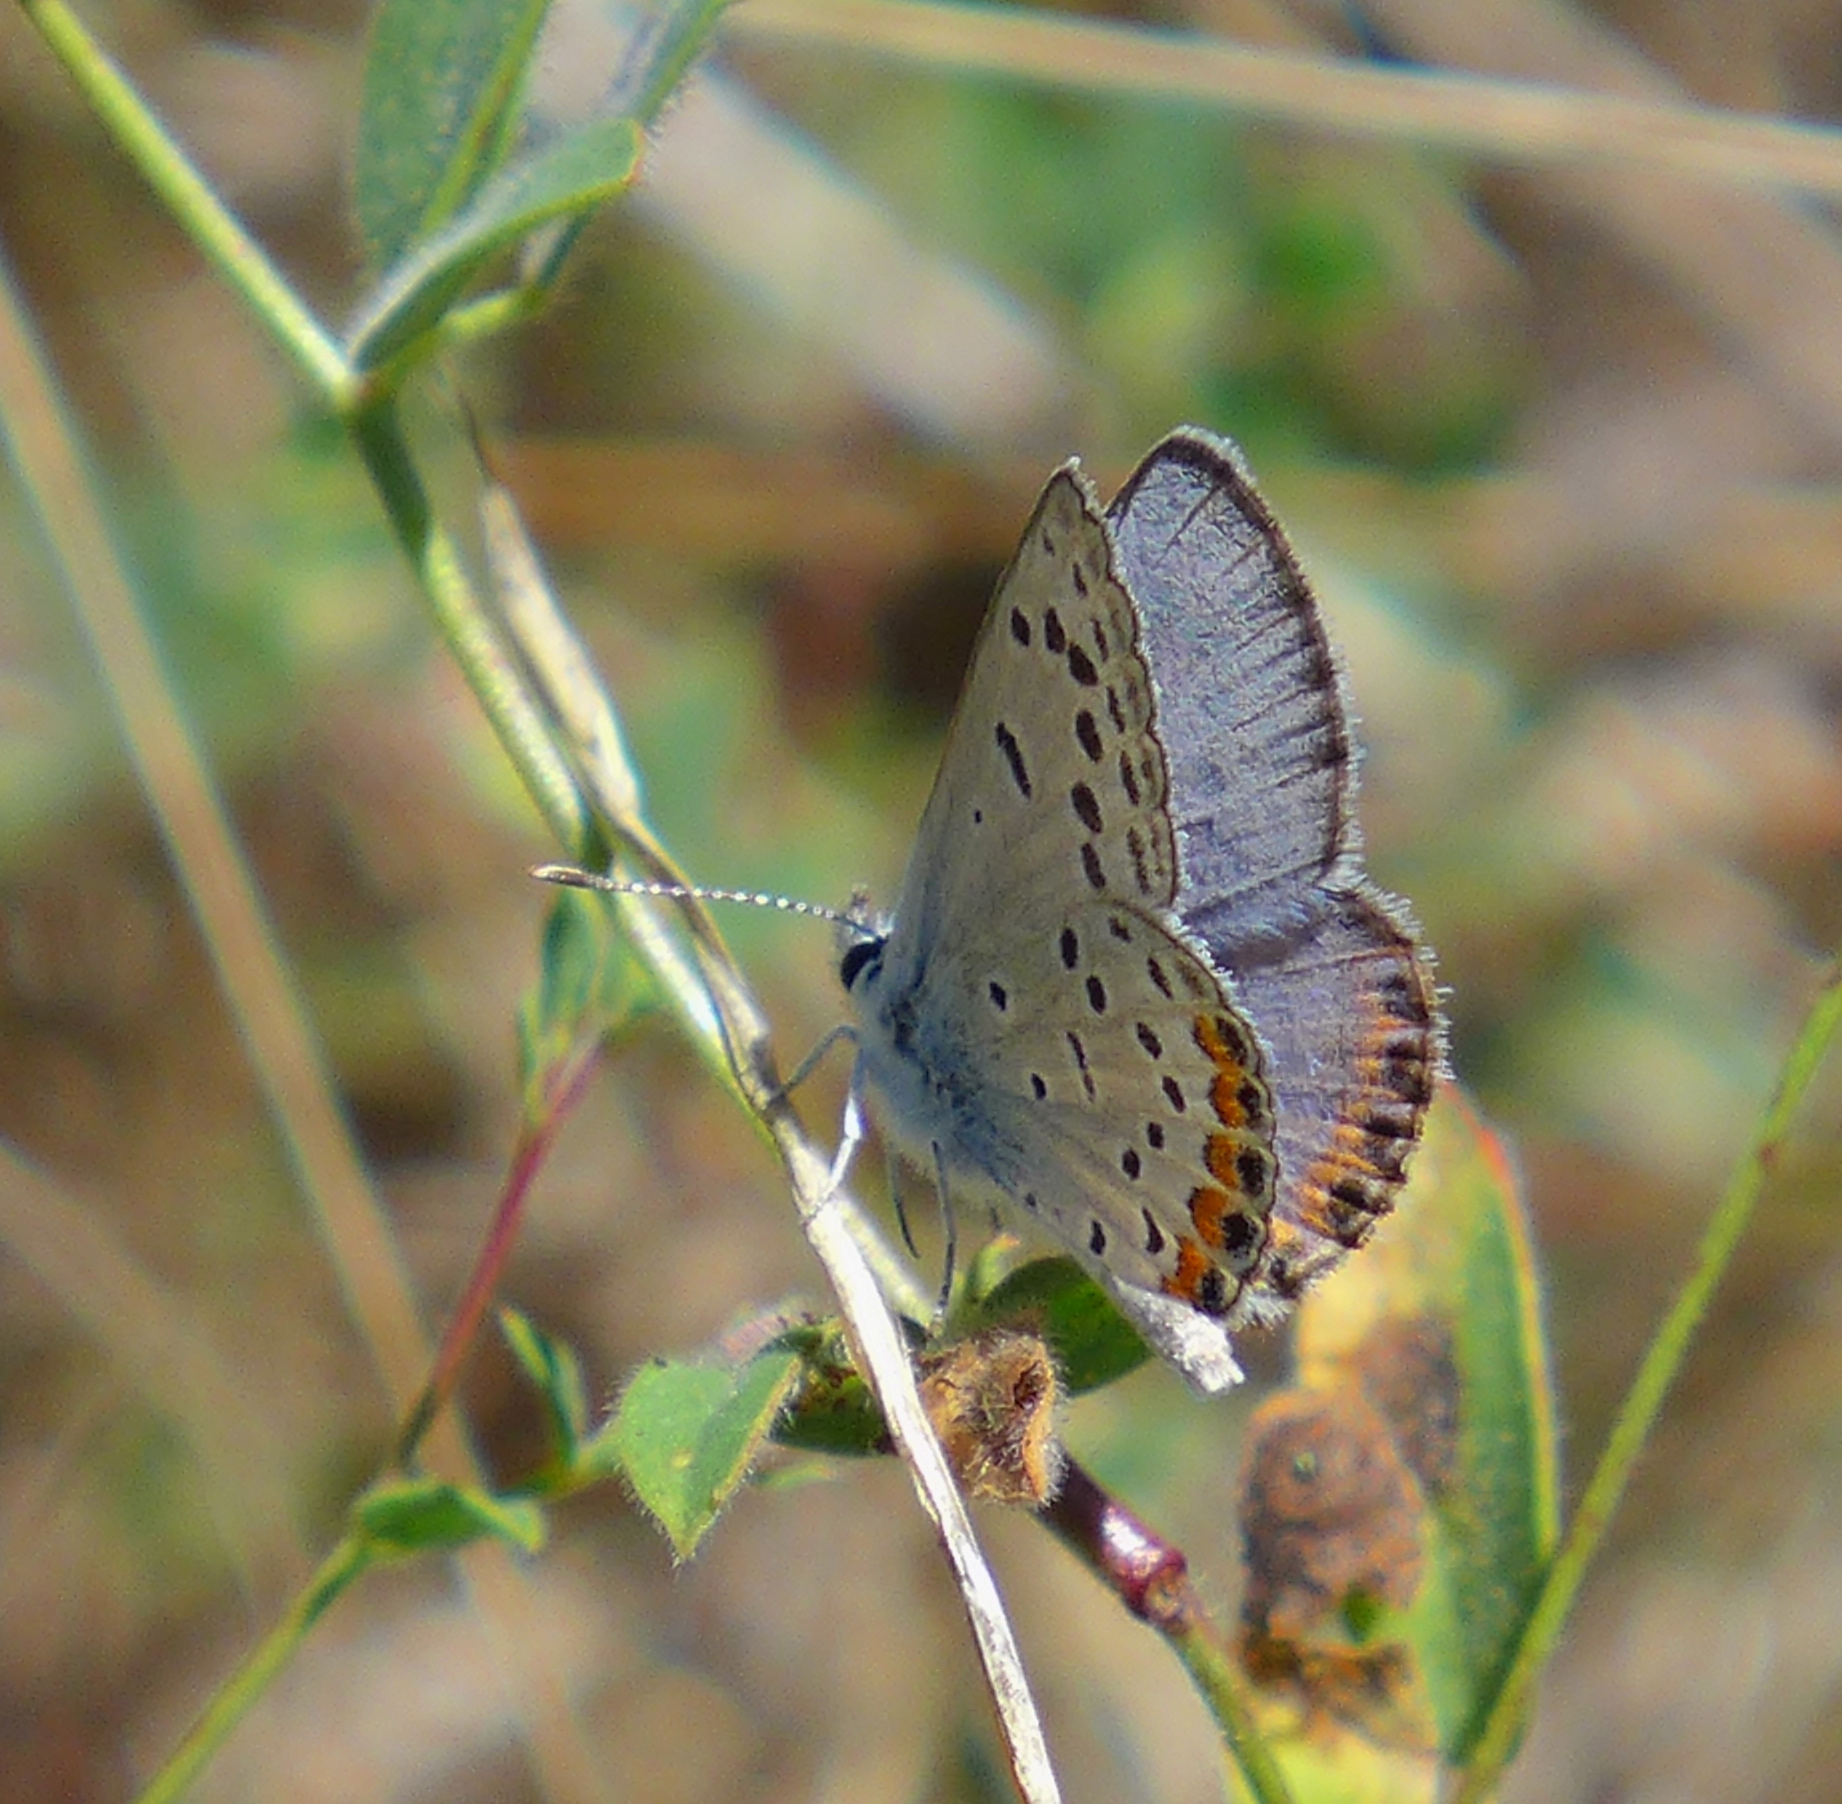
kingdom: Animalia
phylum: Arthropoda
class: Insecta
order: Lepidoptera
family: Lycaenidae
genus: Icaricia
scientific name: Icaricia acmon
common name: Acmon blue
